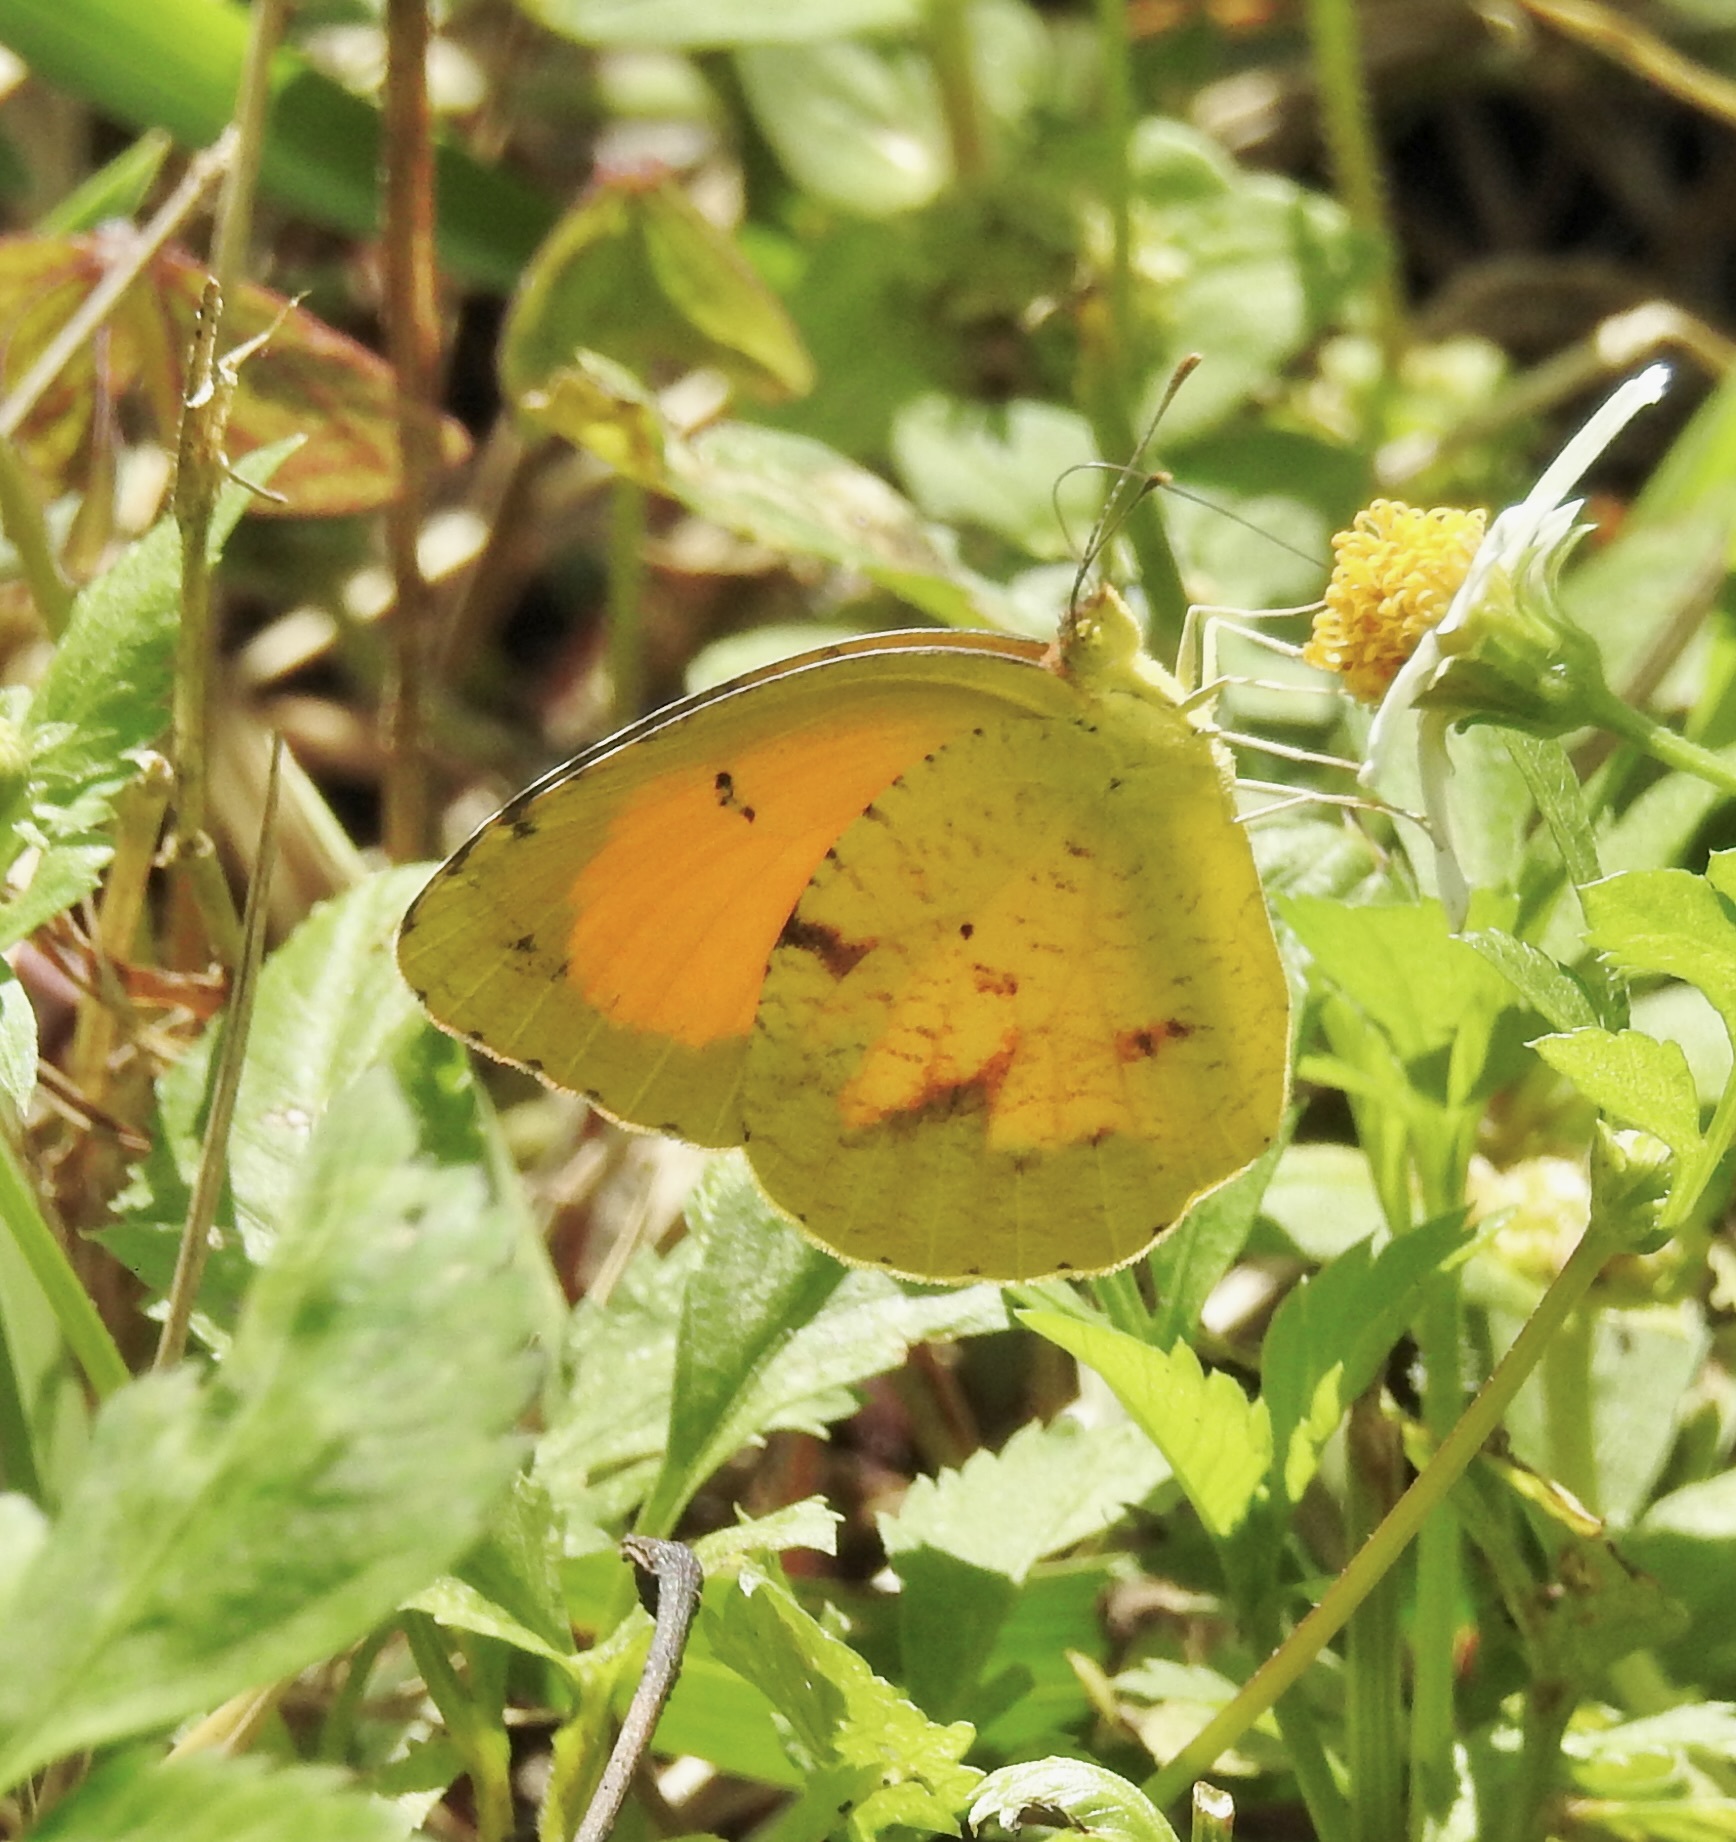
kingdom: Animalia
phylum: Arthropoda
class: Insecta
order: Lepidoptera
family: Pieridae
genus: Abaeis
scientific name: Abaeis nicippe
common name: Sleepy orange
